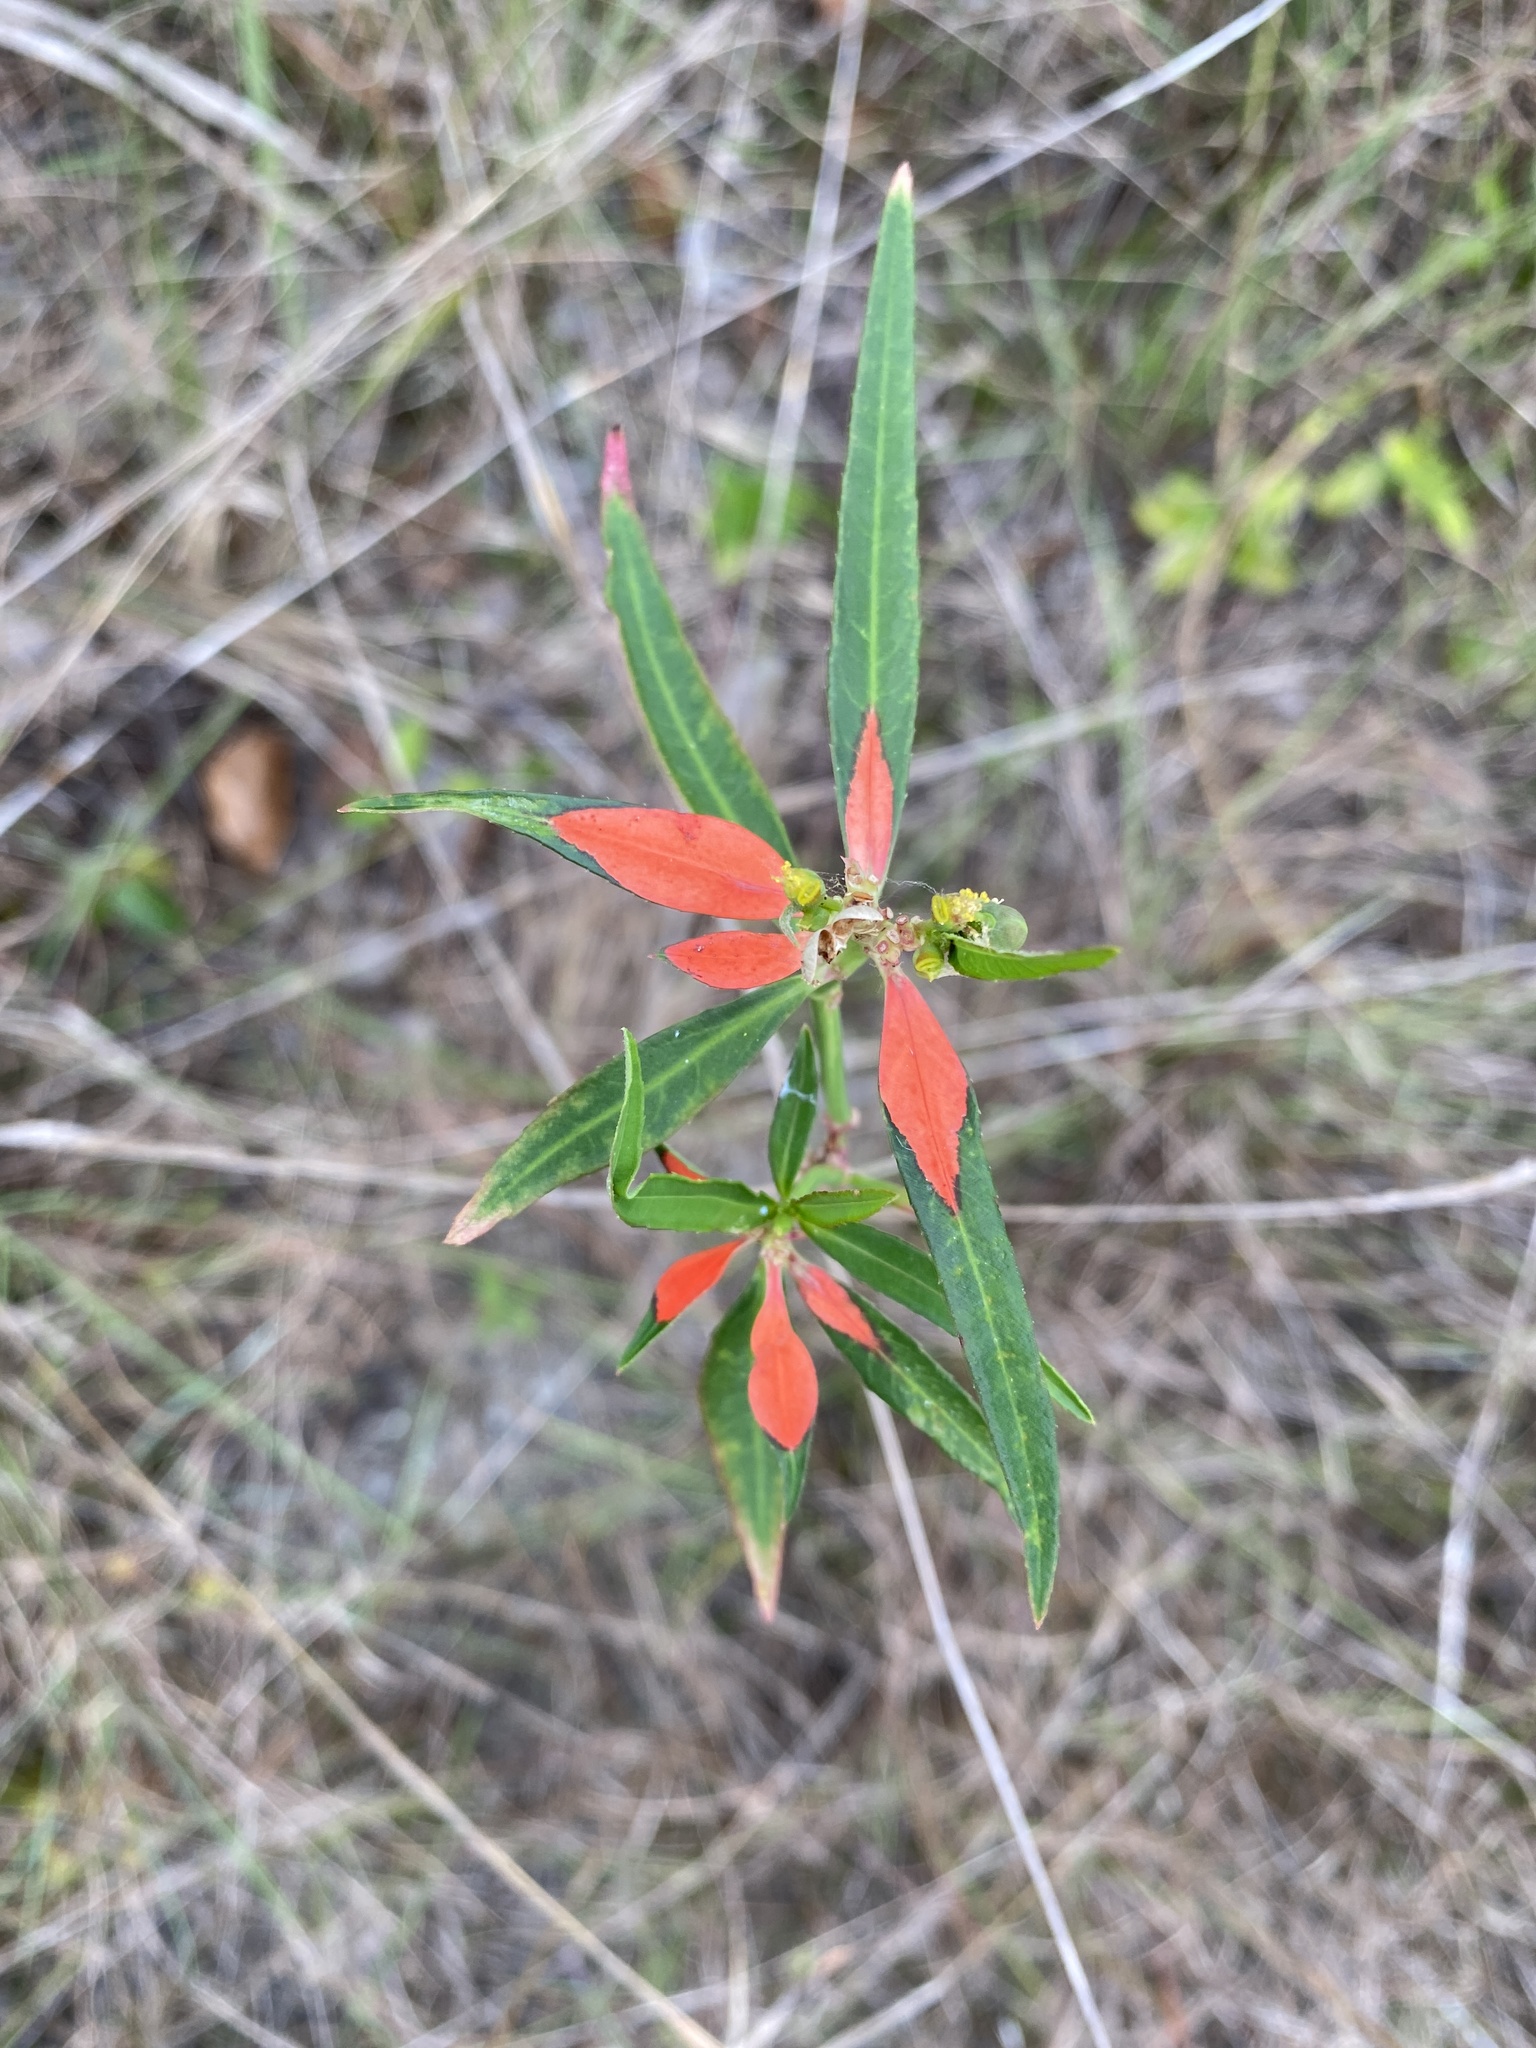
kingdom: Plantae
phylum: Tracheophyta
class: Magnoliopsida
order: Malpighiales
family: Euphorbiaceae
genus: Euphorbia
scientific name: Euphorbia heterophylla
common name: Mexican fireplant
